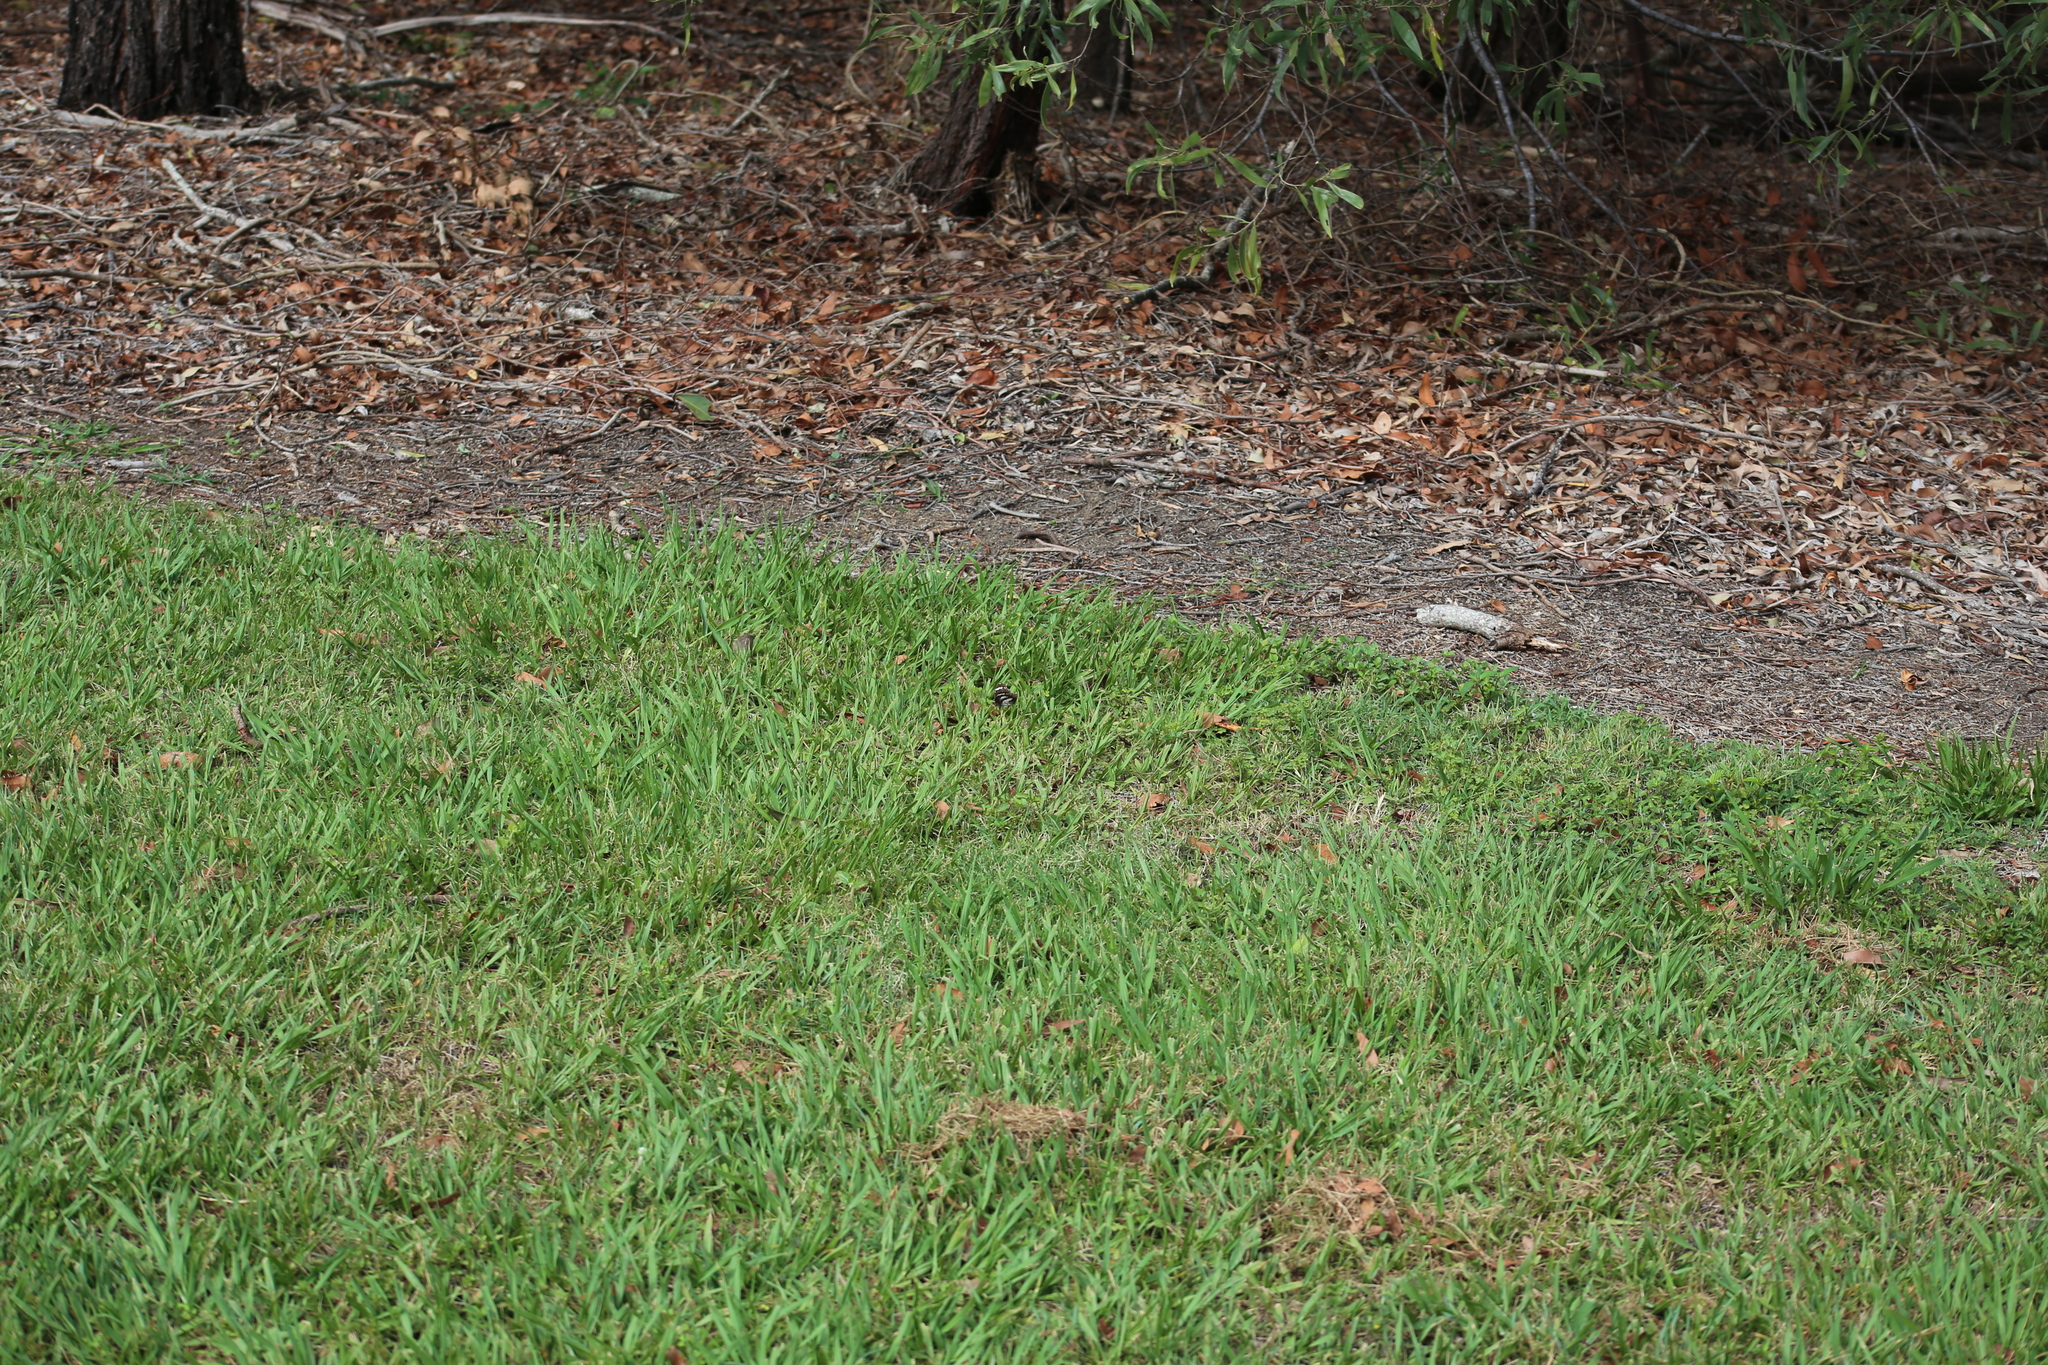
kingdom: Animalia
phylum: Arthropoda
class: Insecta
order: Lepidoptera
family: Nymphalidae
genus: Danaus
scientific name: Danaus affinis
